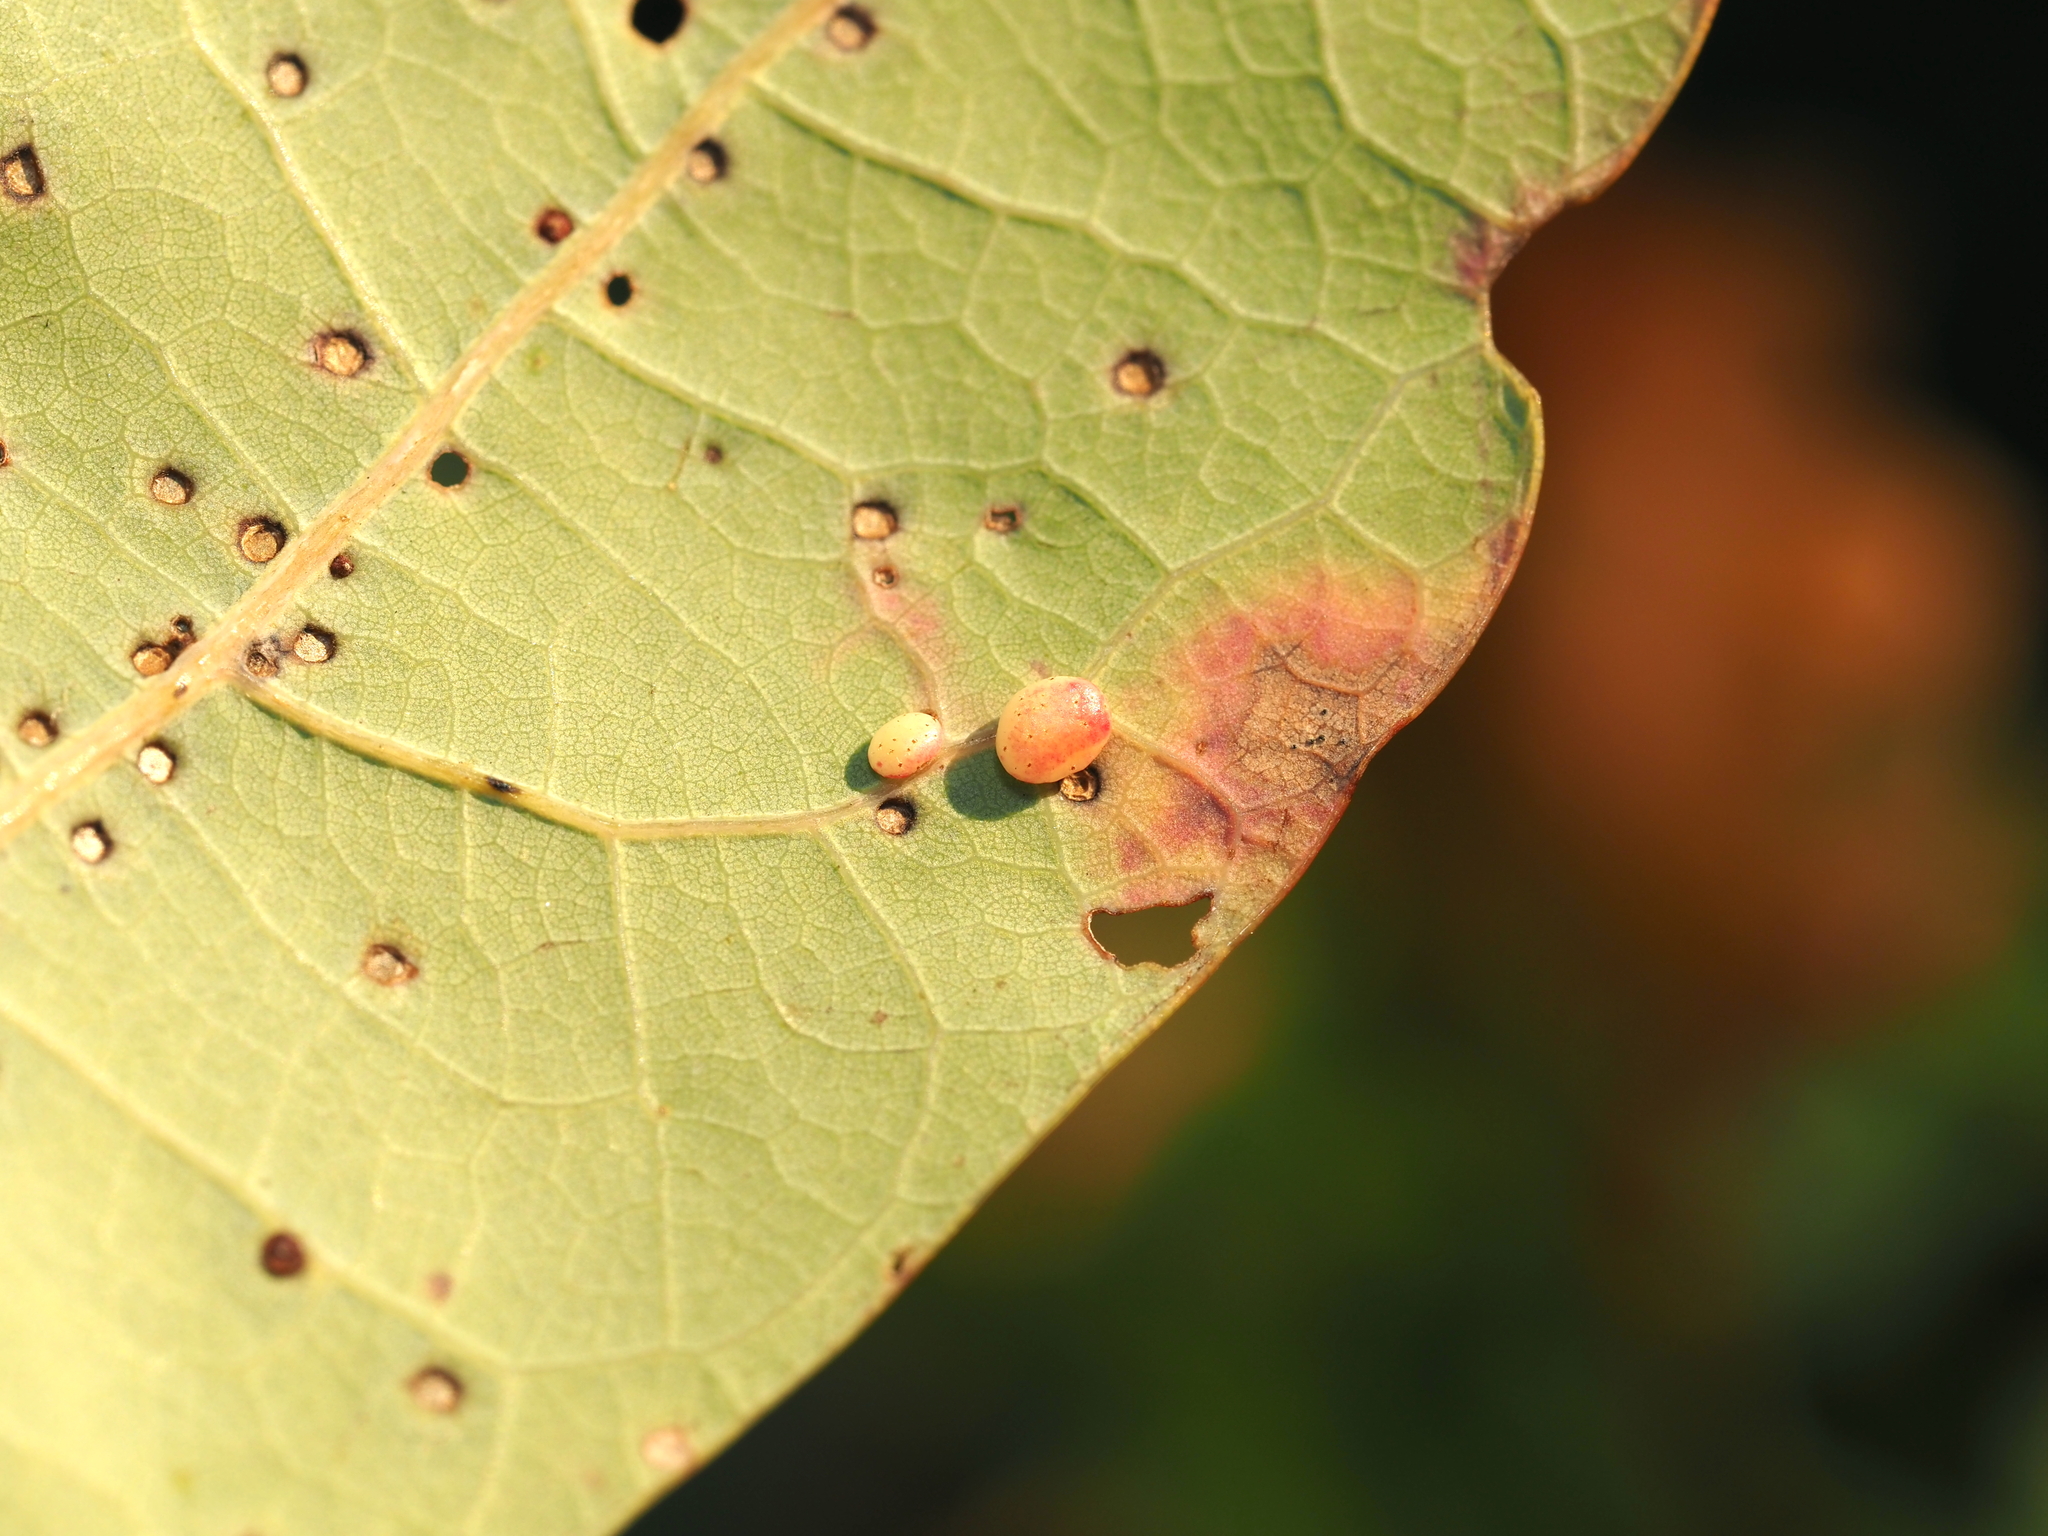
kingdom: Animalia
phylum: Arthropoda
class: Insecta
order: Hymenoptera
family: Cynipidae
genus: Phylloteras
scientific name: Phylloteras
